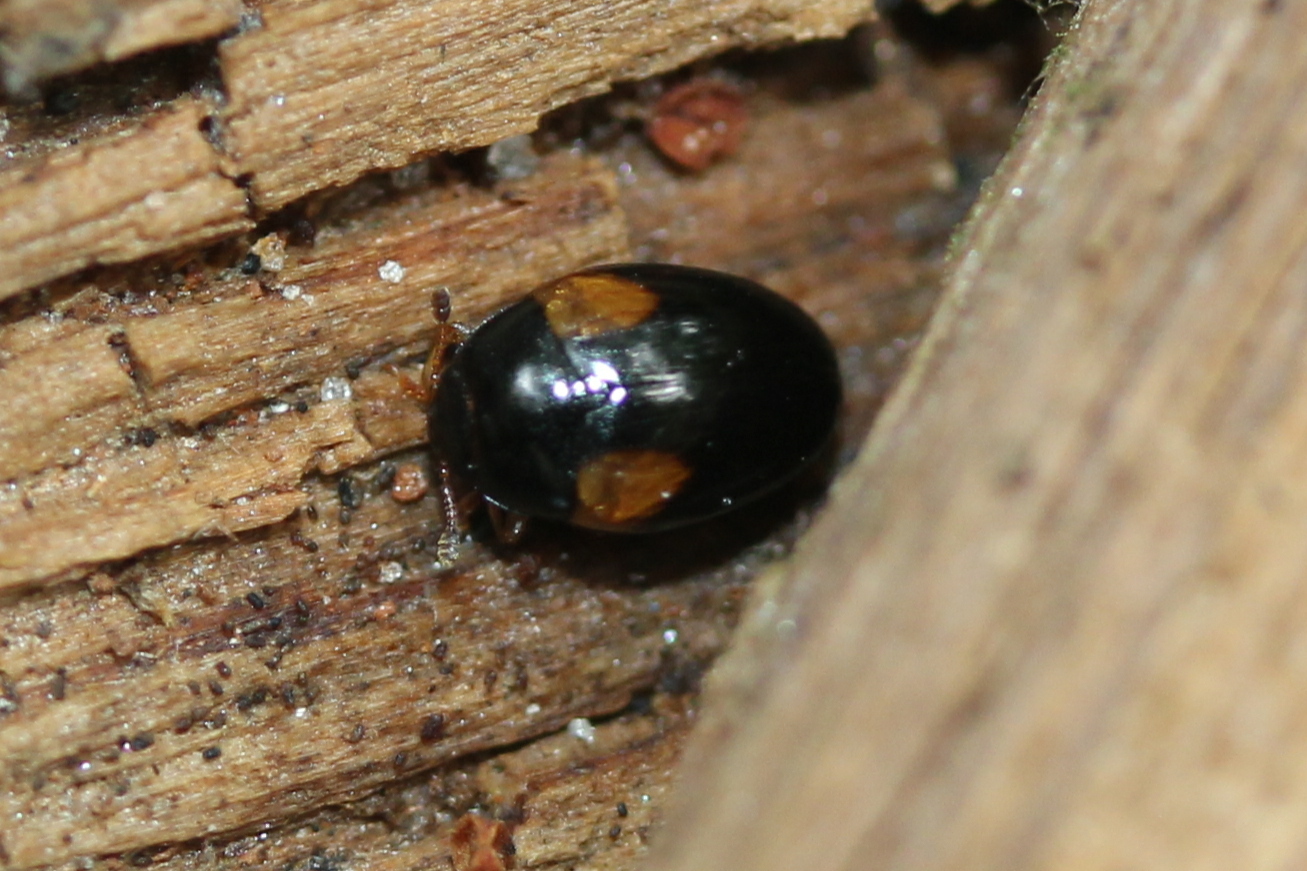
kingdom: Animalia
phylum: Arthropoda
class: Insecta
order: Coleoptera
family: Erotylidae
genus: Tritoma
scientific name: Tritoma humeralis
